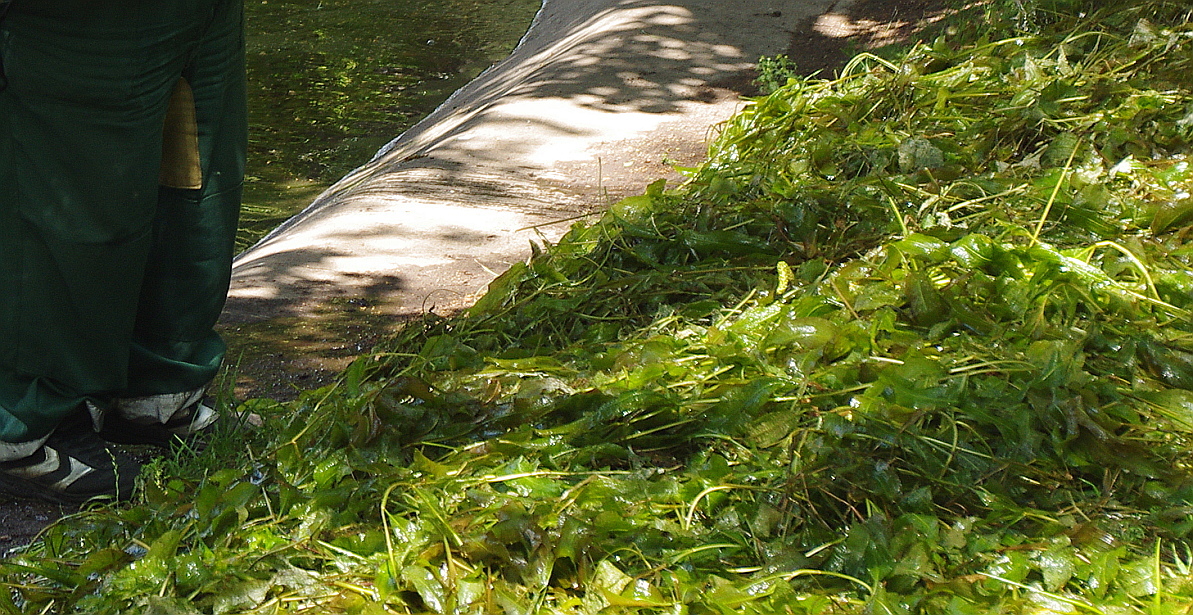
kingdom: Plantae
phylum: Tracheophyta
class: Liliopsida
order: Alismatales
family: Potamogetonaceae
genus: Potamogeton
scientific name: Potamogeton lucens
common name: Shining pondweed
